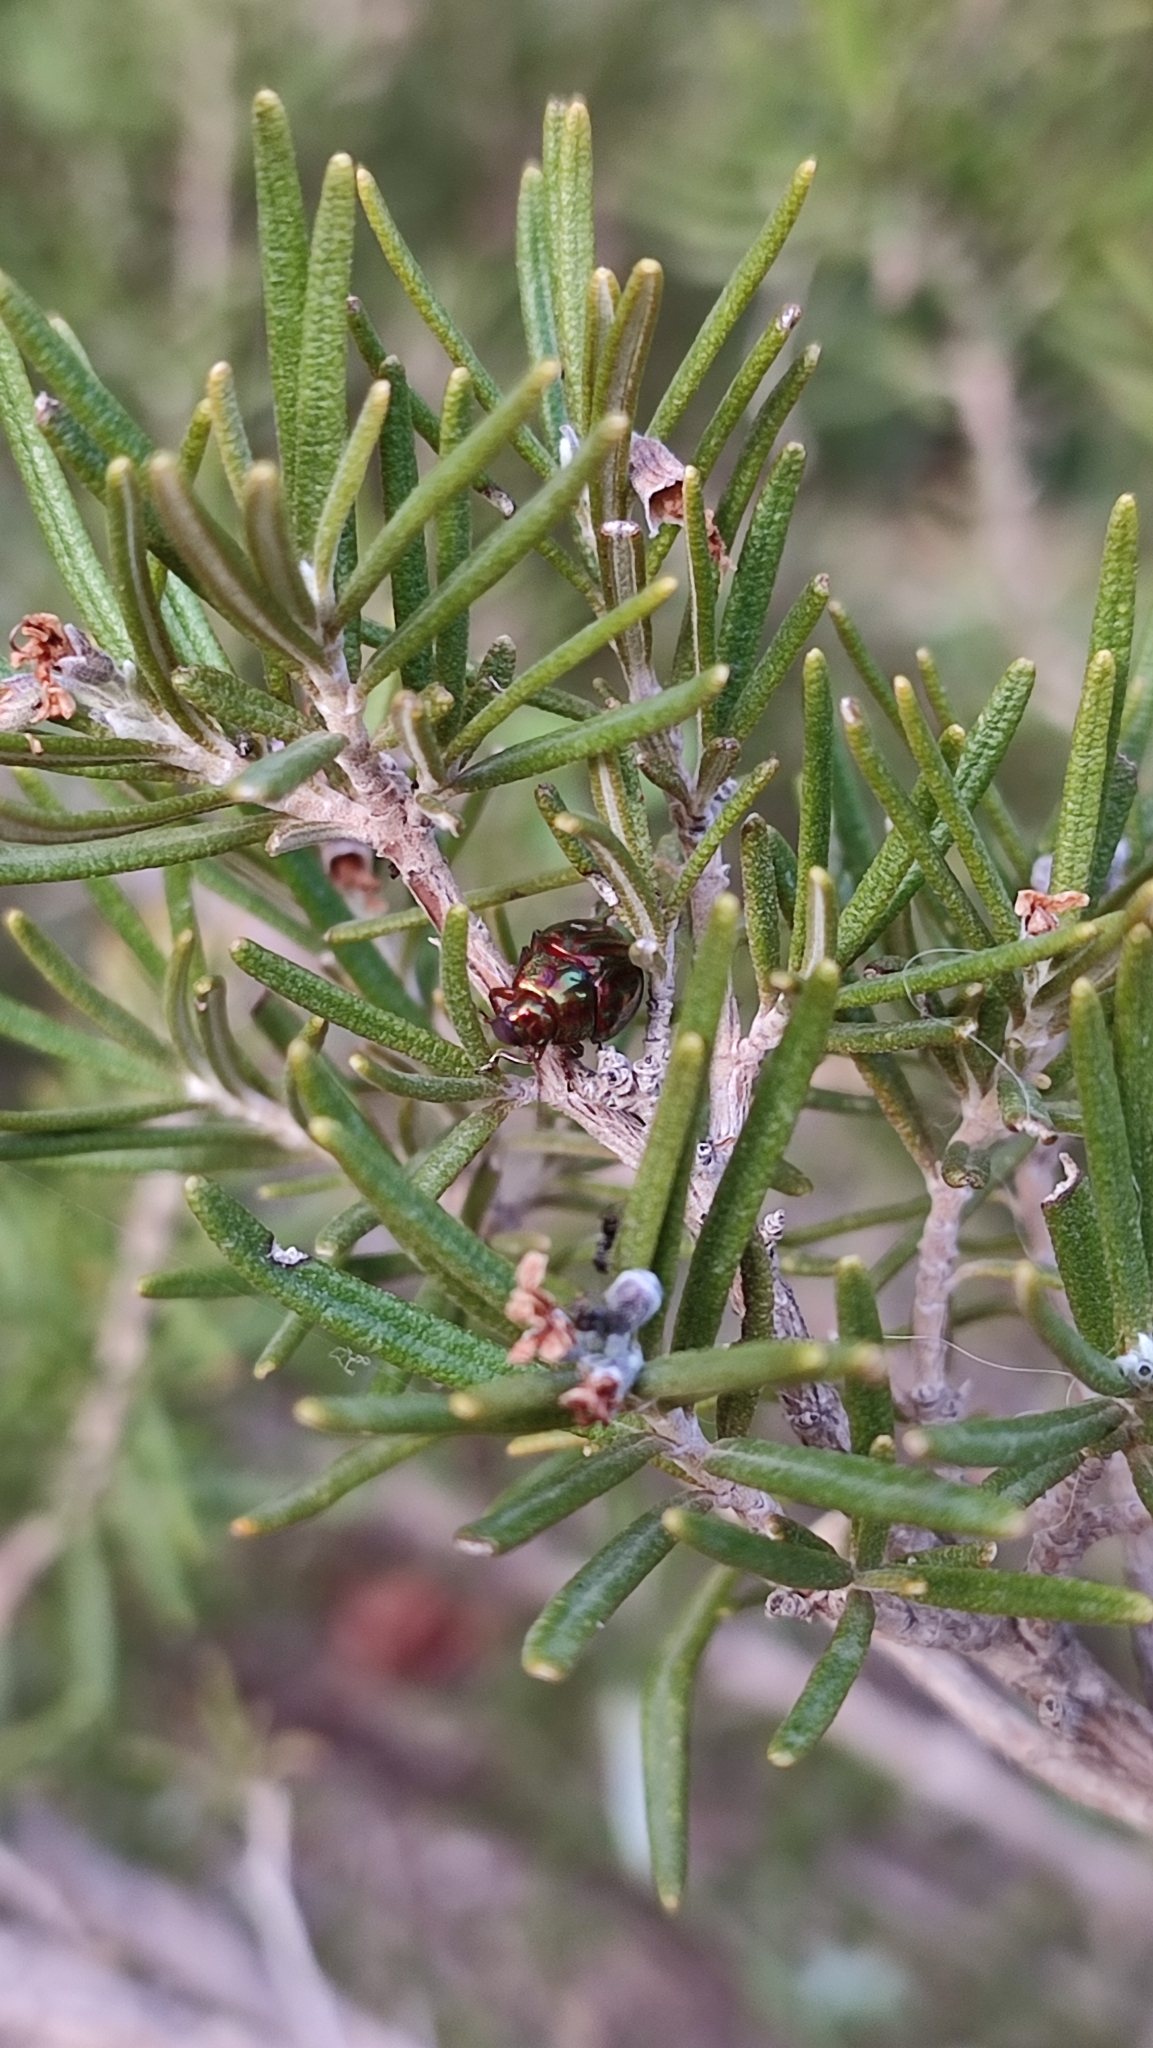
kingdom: Animalia
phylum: Arthropoda
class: Insecta
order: Coleoptera
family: Chrysomelidae
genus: Chrysolina
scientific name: Chrysolina americana
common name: Rosemary beetle
